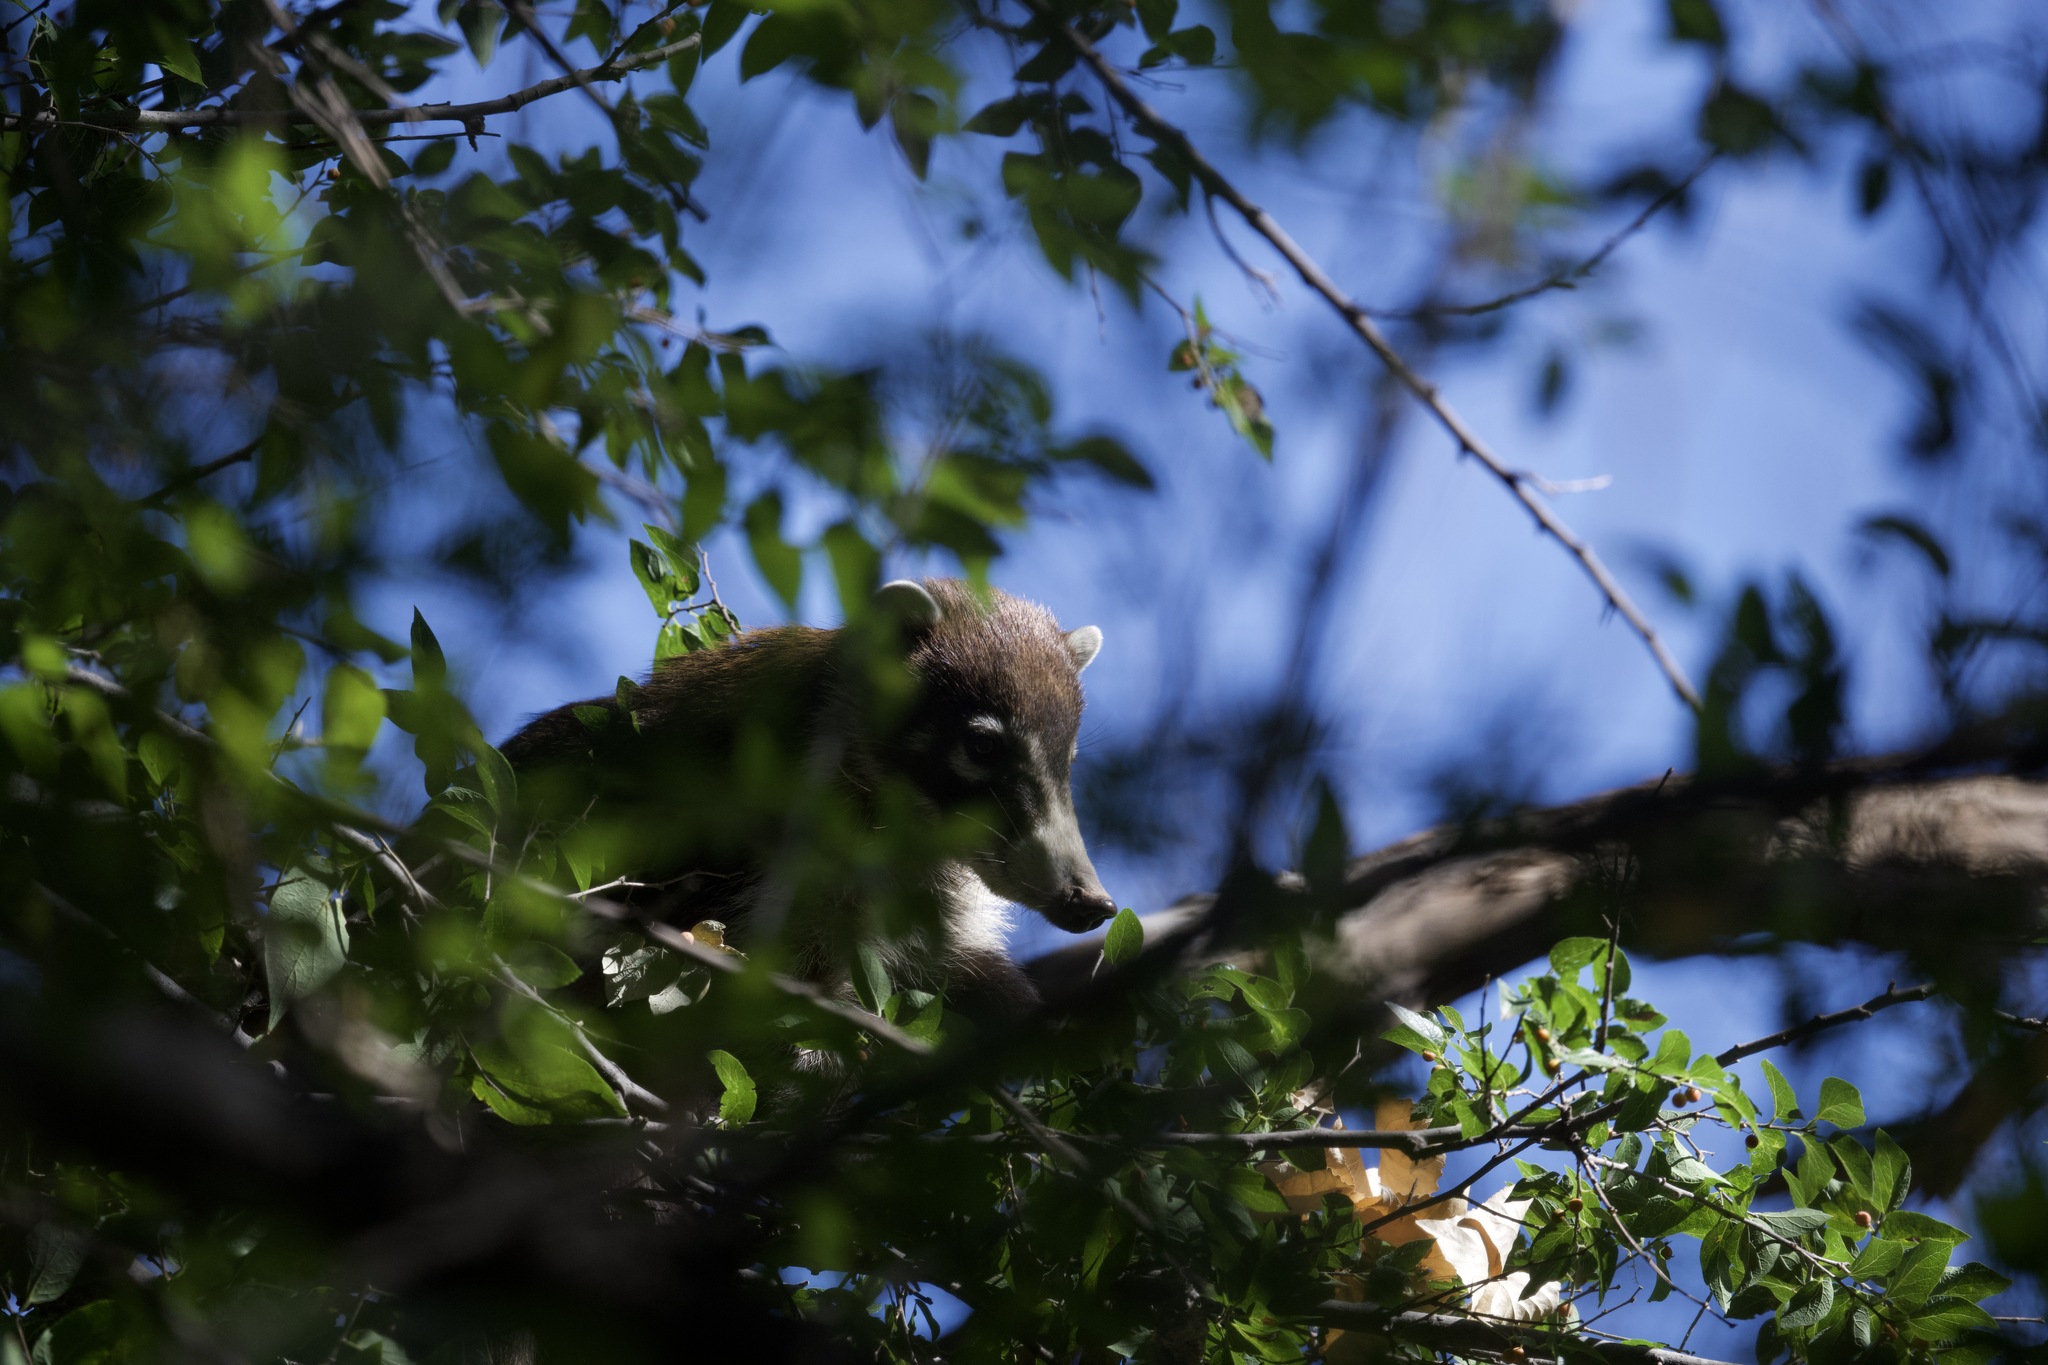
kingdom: Animalia
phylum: Chordata
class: Mammalia
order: Carnivora
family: Procyonidae
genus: Nasua
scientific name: Nasua narica
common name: White-nosed coati
